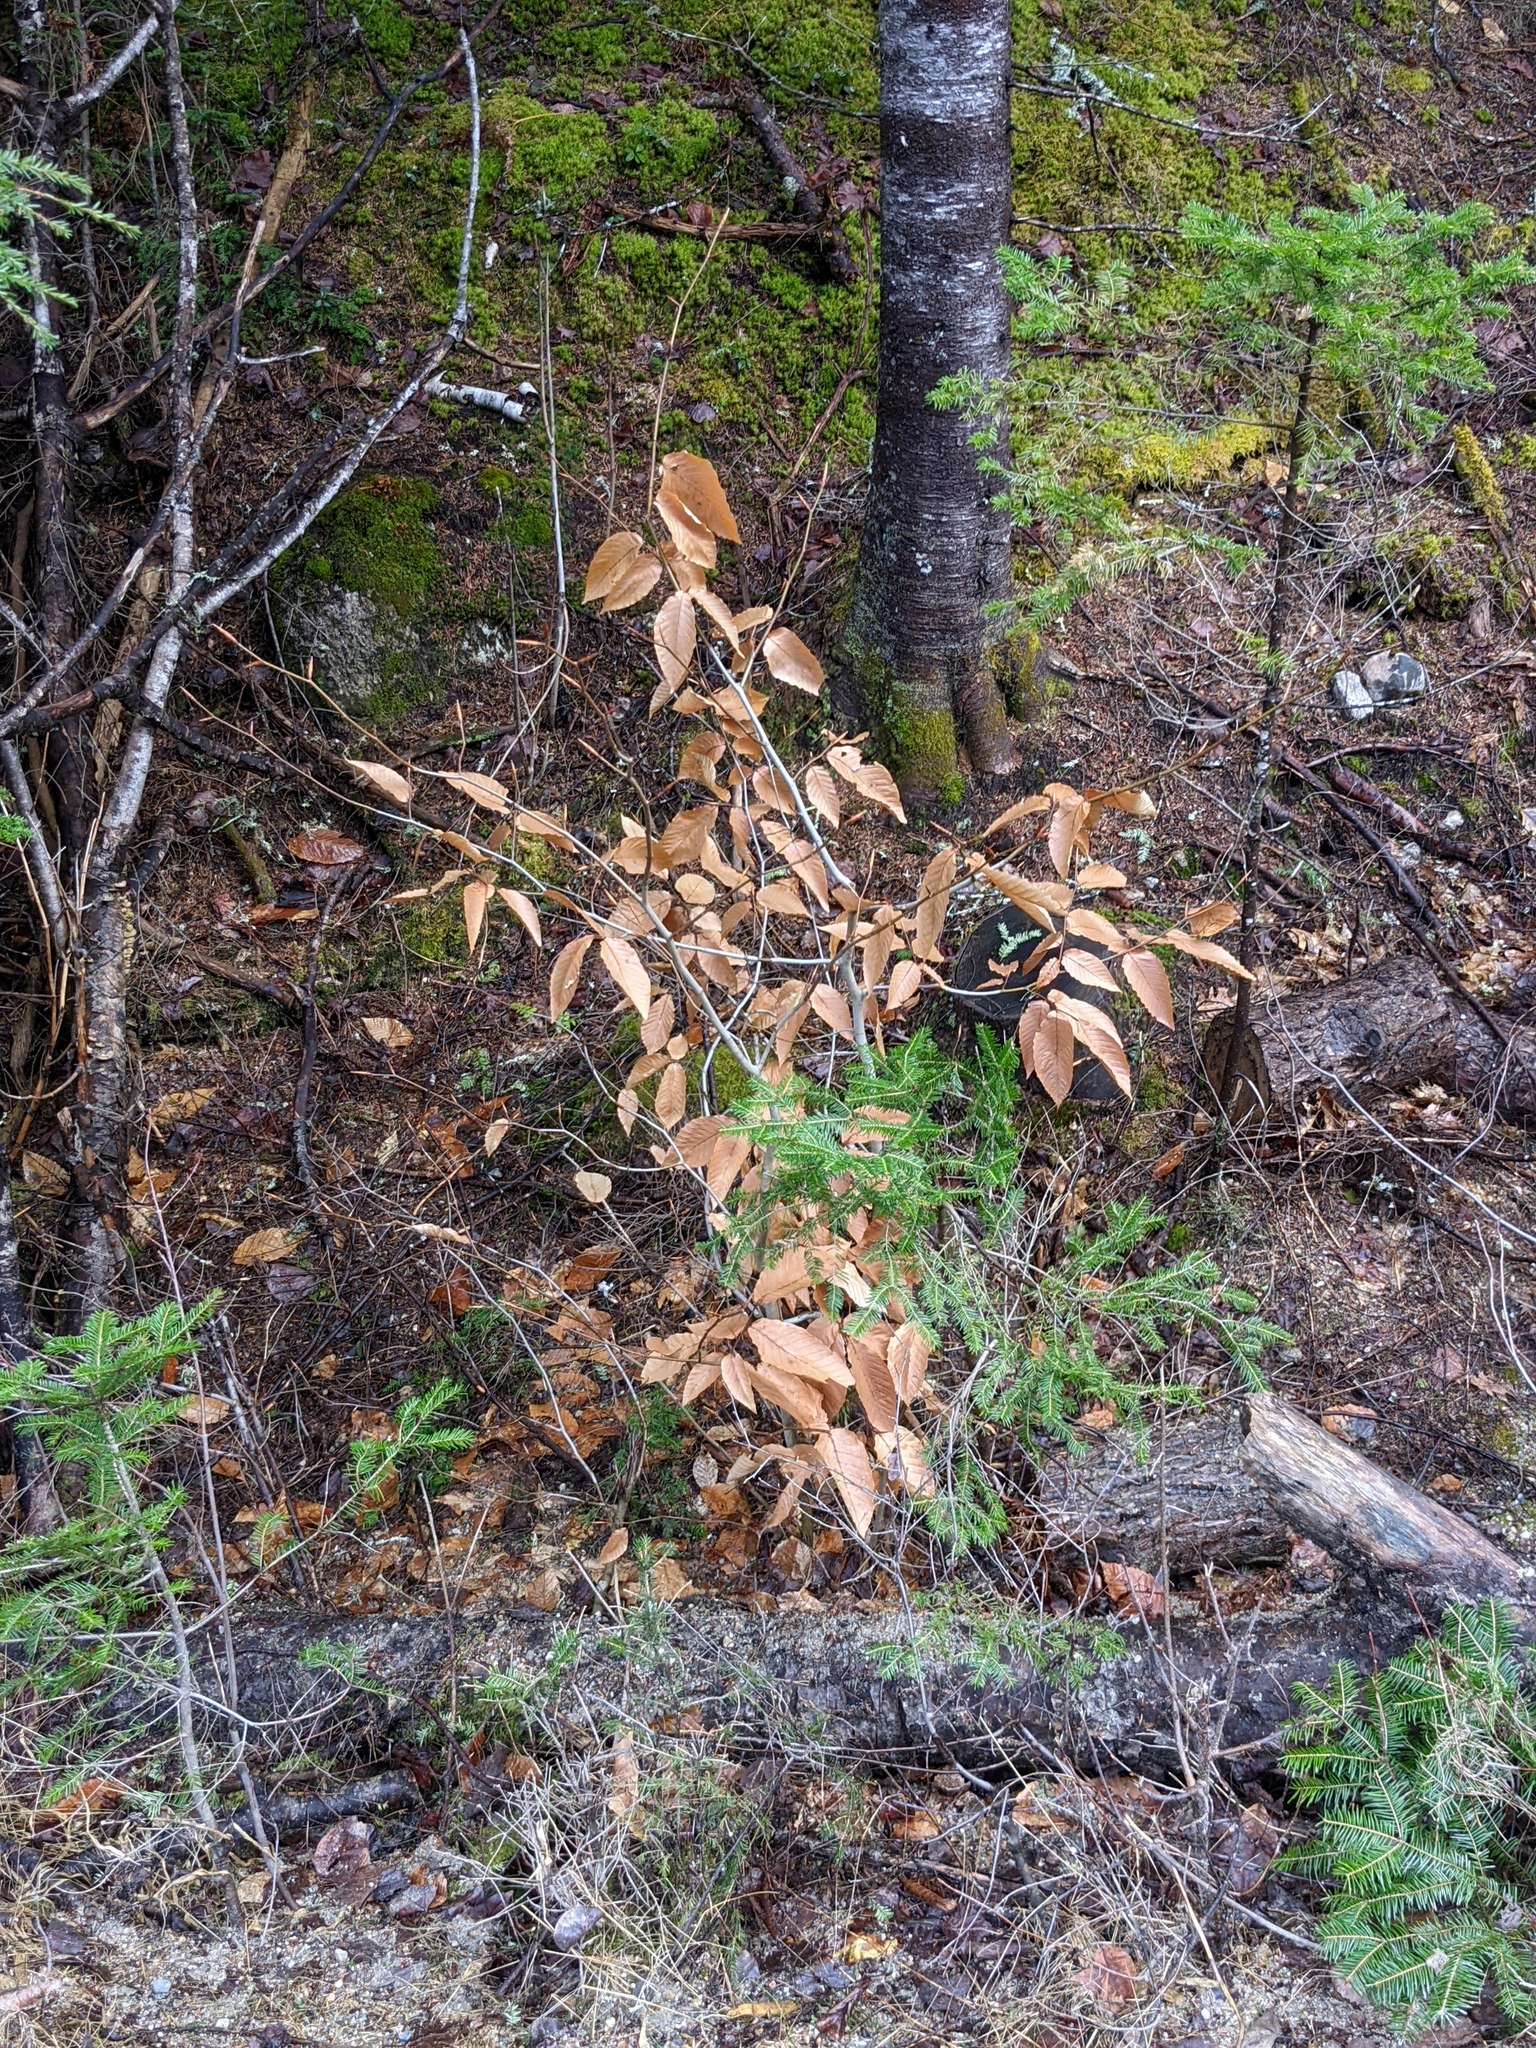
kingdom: Plantae
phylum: Tracheophyta
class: Magnoliopsida
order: Fagales
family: Fagaceae
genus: Fagus
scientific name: Fagus grandifolia
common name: American beech
